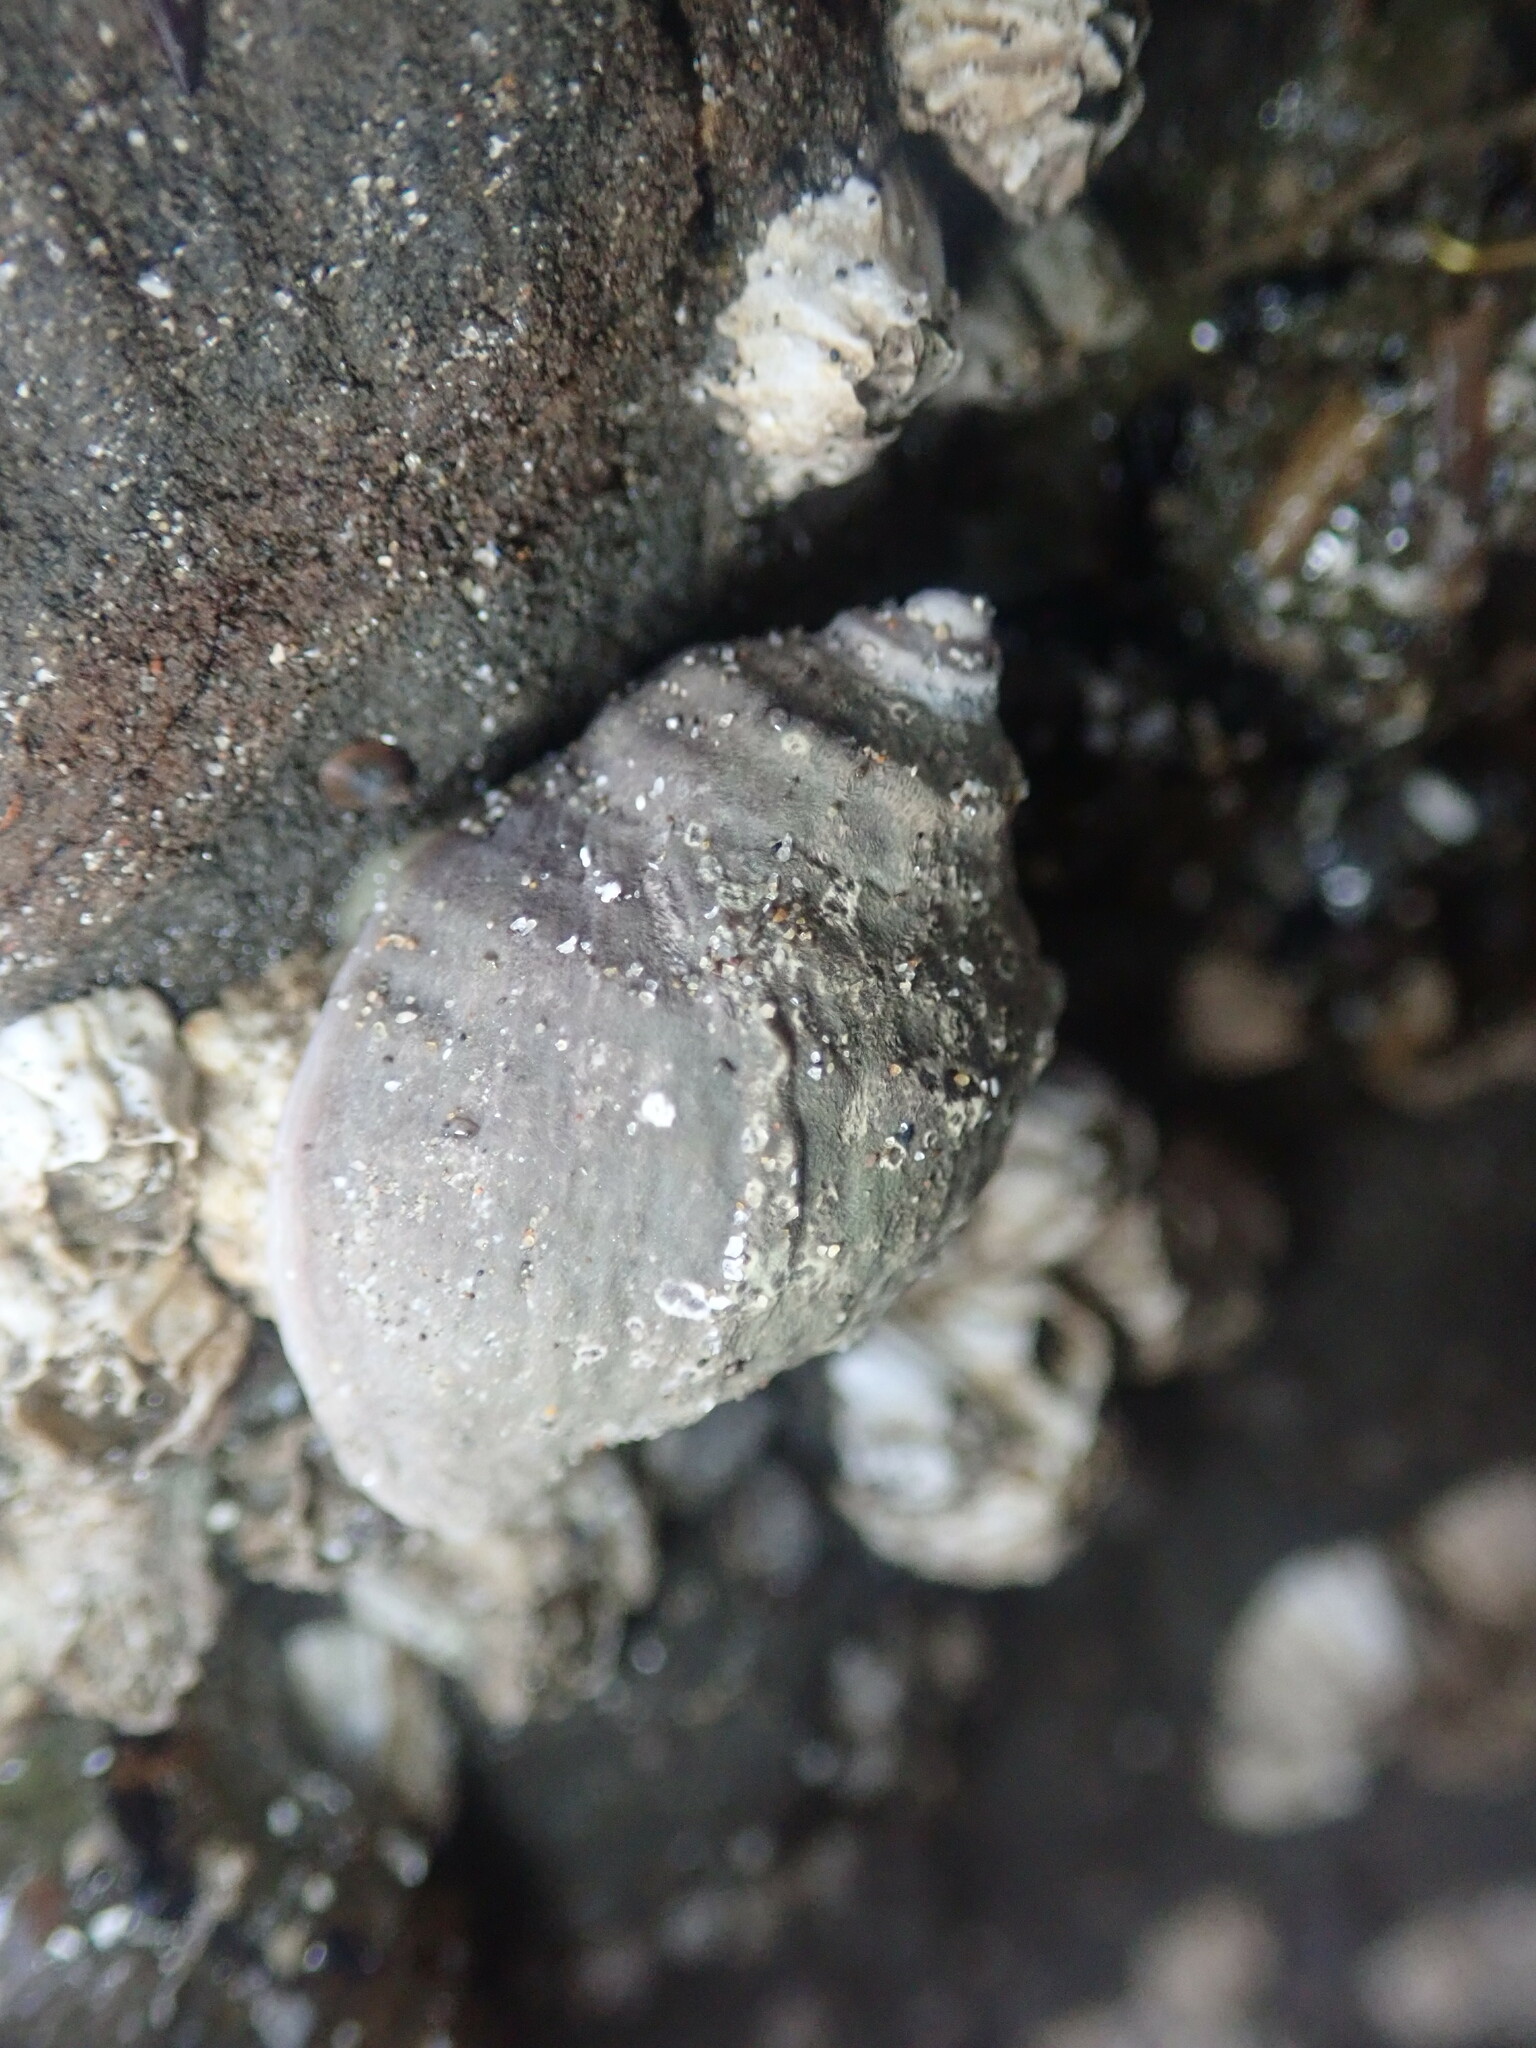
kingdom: Animalia
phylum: Mollusca
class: Gastropoda
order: Neogastropoda
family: Muricidae
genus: Nucella
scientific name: Nucella emarginata
